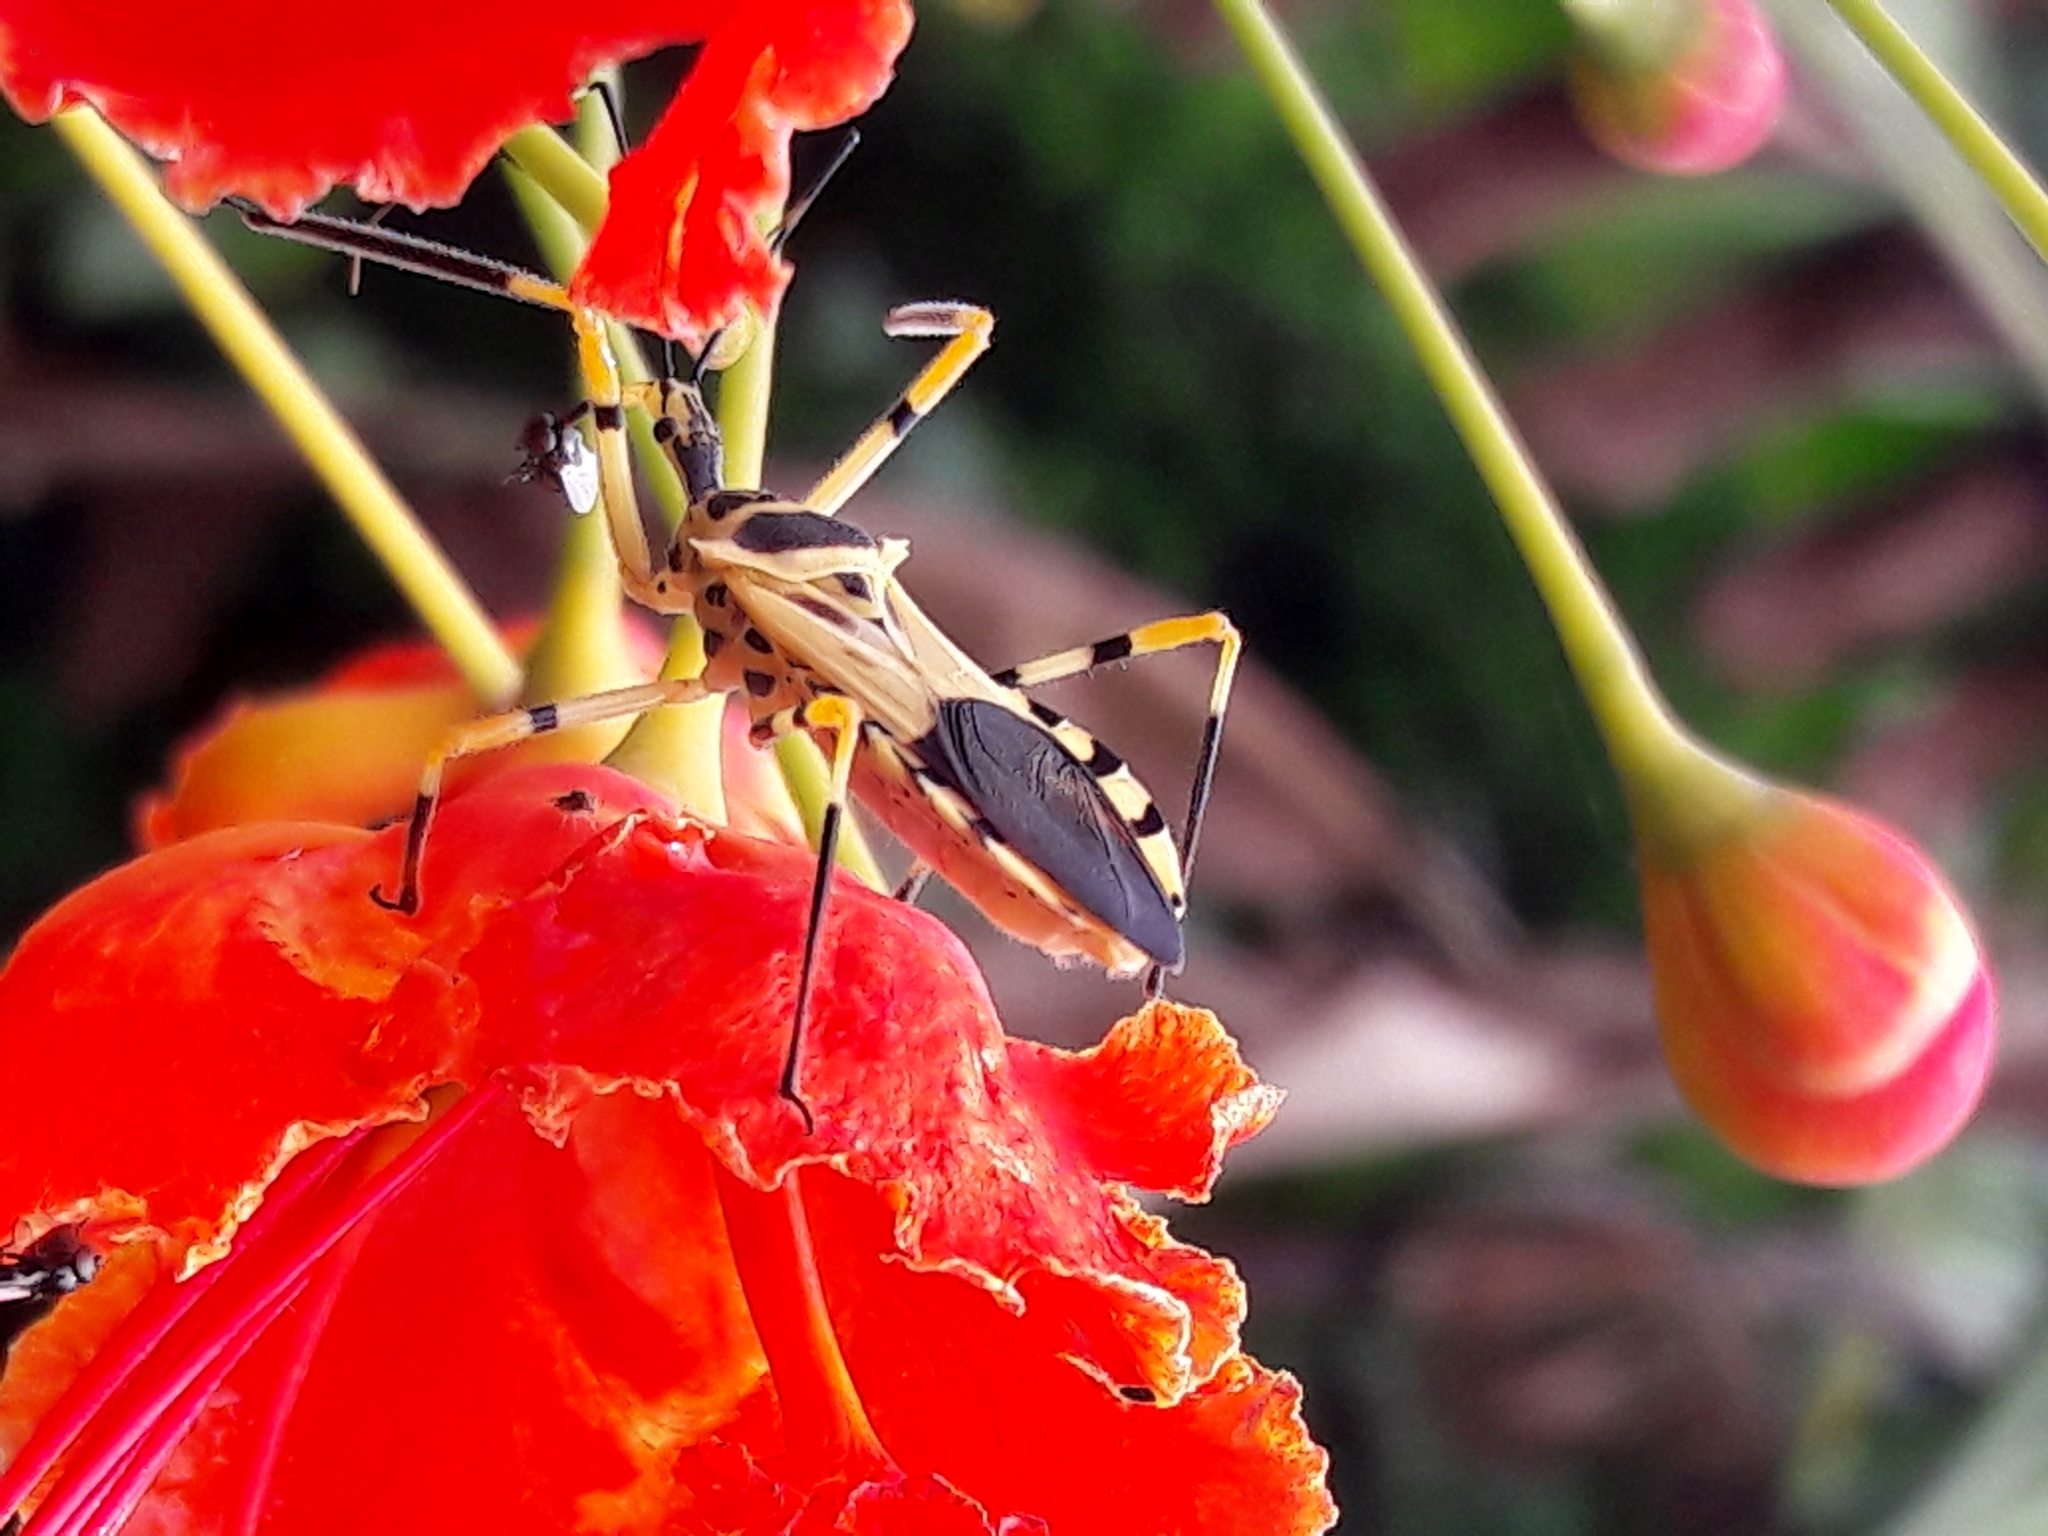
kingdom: Animalia
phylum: Arthropoda
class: Insecta
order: Hemiptera
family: Reduviidae
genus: Zelus
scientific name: Zelus armillatus
